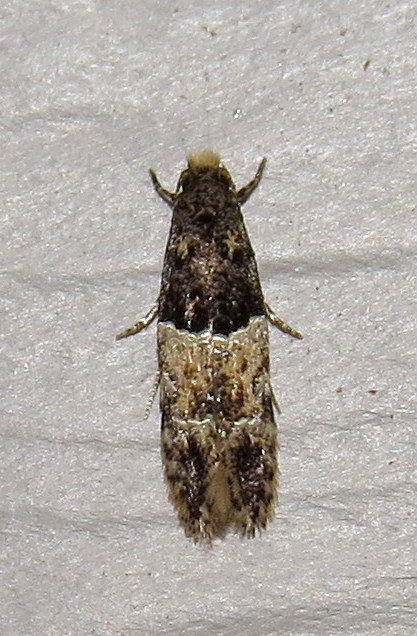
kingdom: Animalia
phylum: Arthropoda
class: Insecta
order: Lepidoptera
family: Meessiidae
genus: Oenoe
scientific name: Oenoe hybromella
